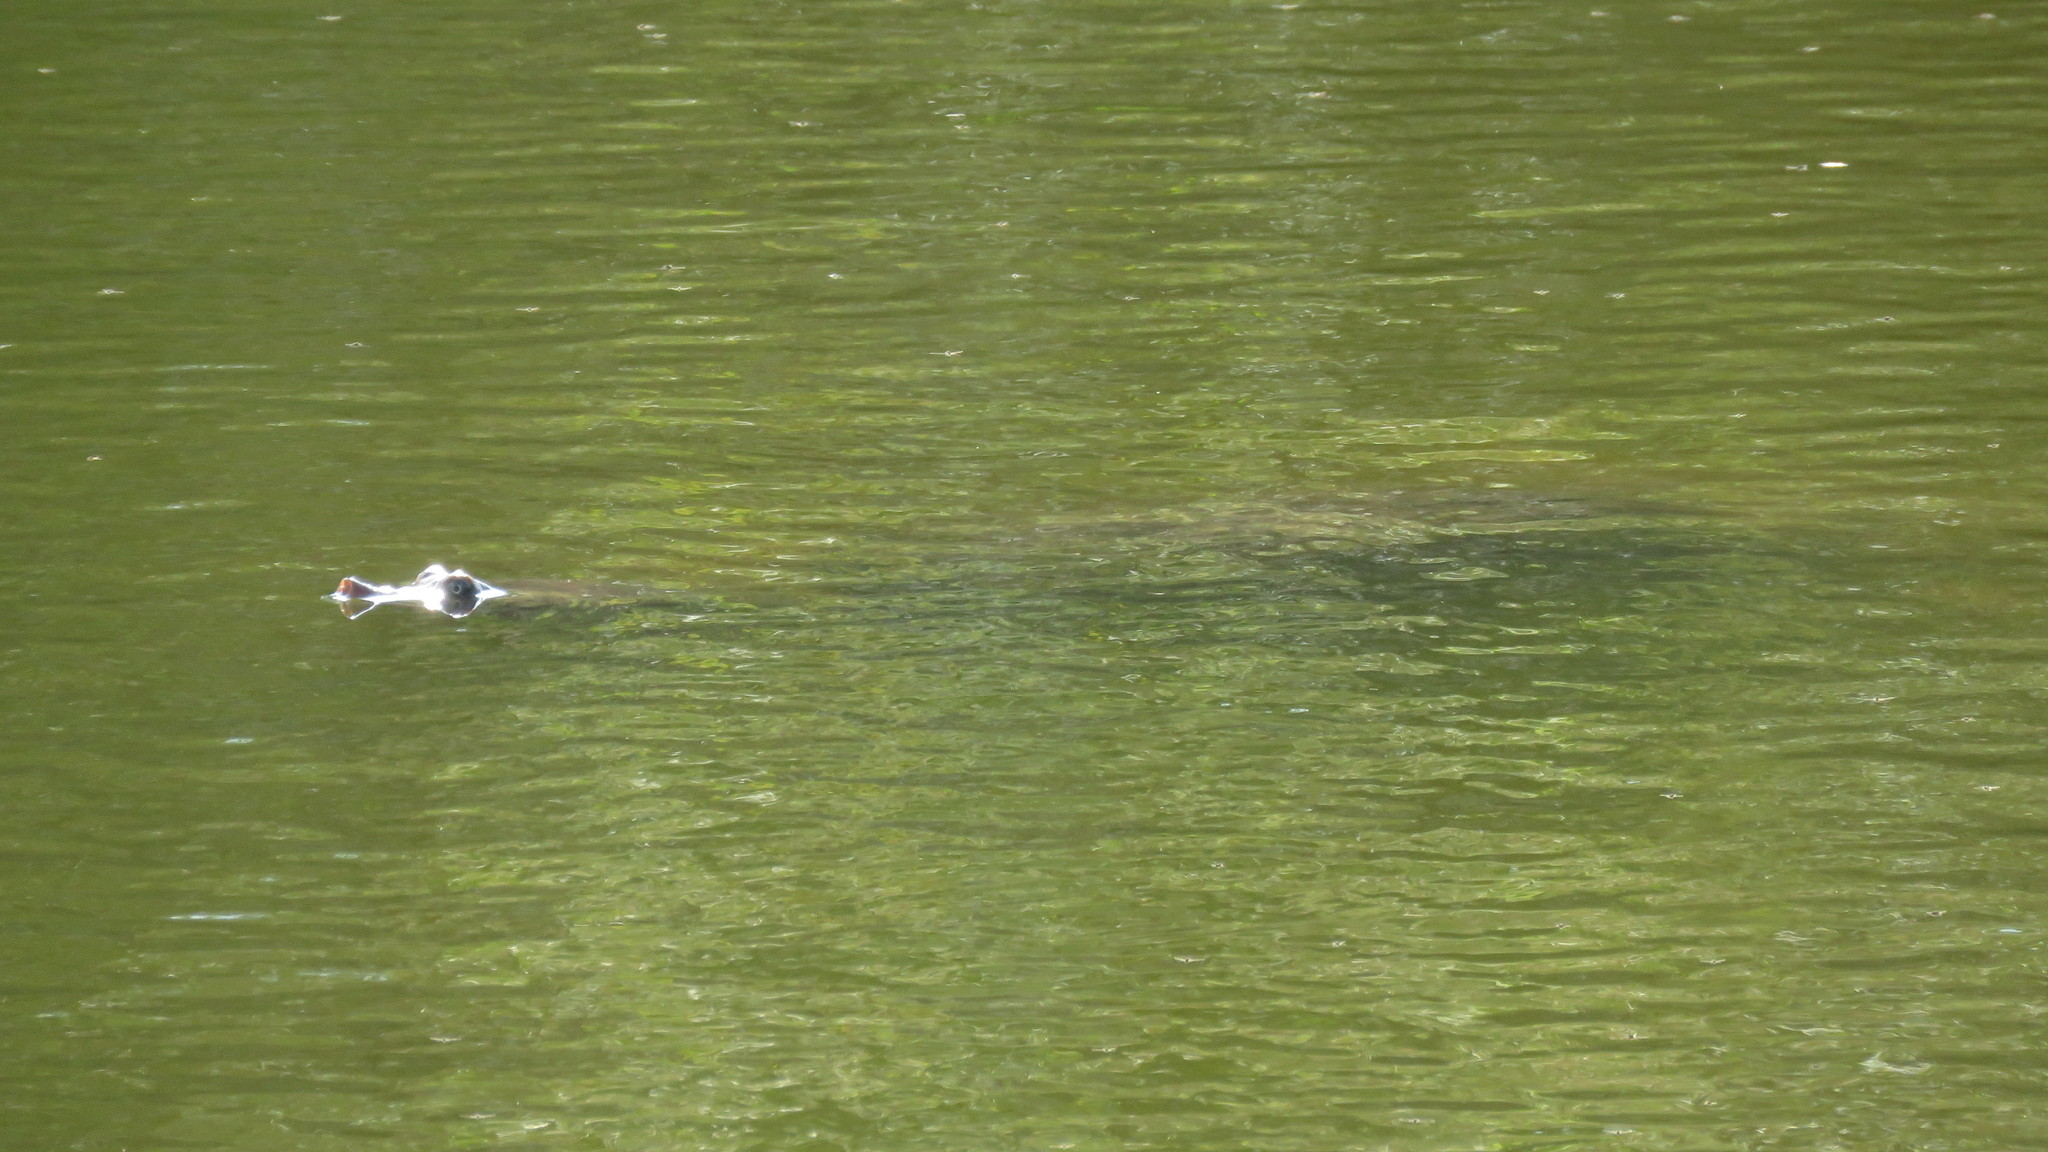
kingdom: Animalia
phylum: Chordata
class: Testudines
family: Trionychidae
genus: Apalone
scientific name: Apalone ferox
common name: Florida softshell turtle
